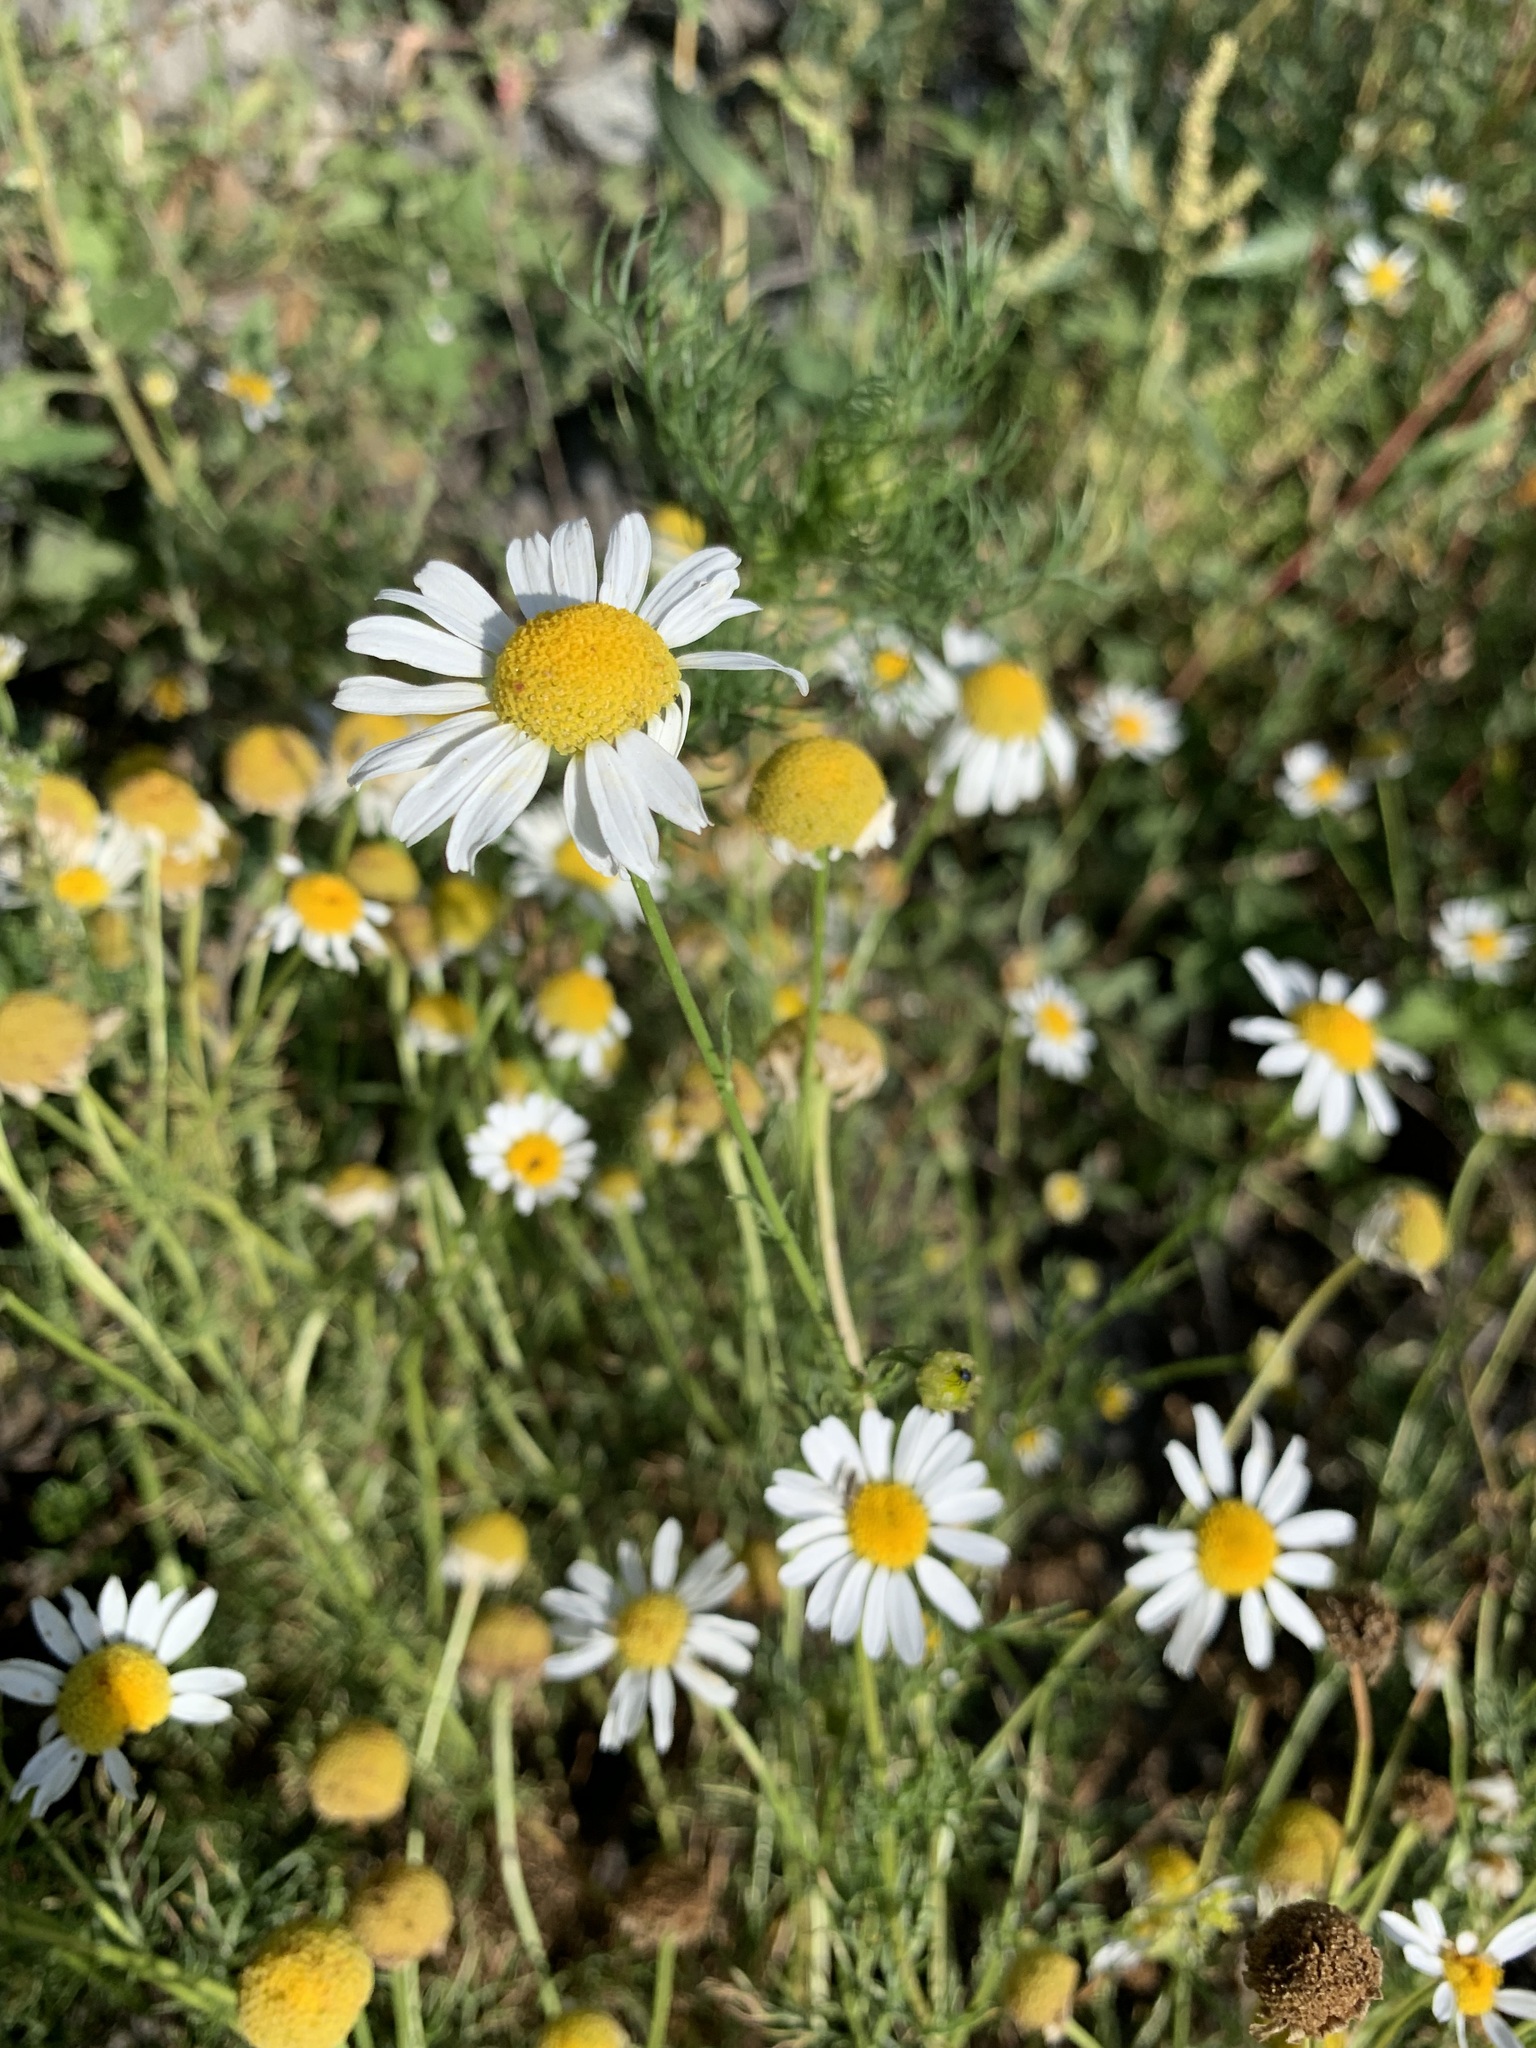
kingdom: Plantae
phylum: Tracheophyta
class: Magnoliopsida
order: Asterales
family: Asteraceae
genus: Tripleurospermum
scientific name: Tripleurospermum inodorum
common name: Scentless mayweed
